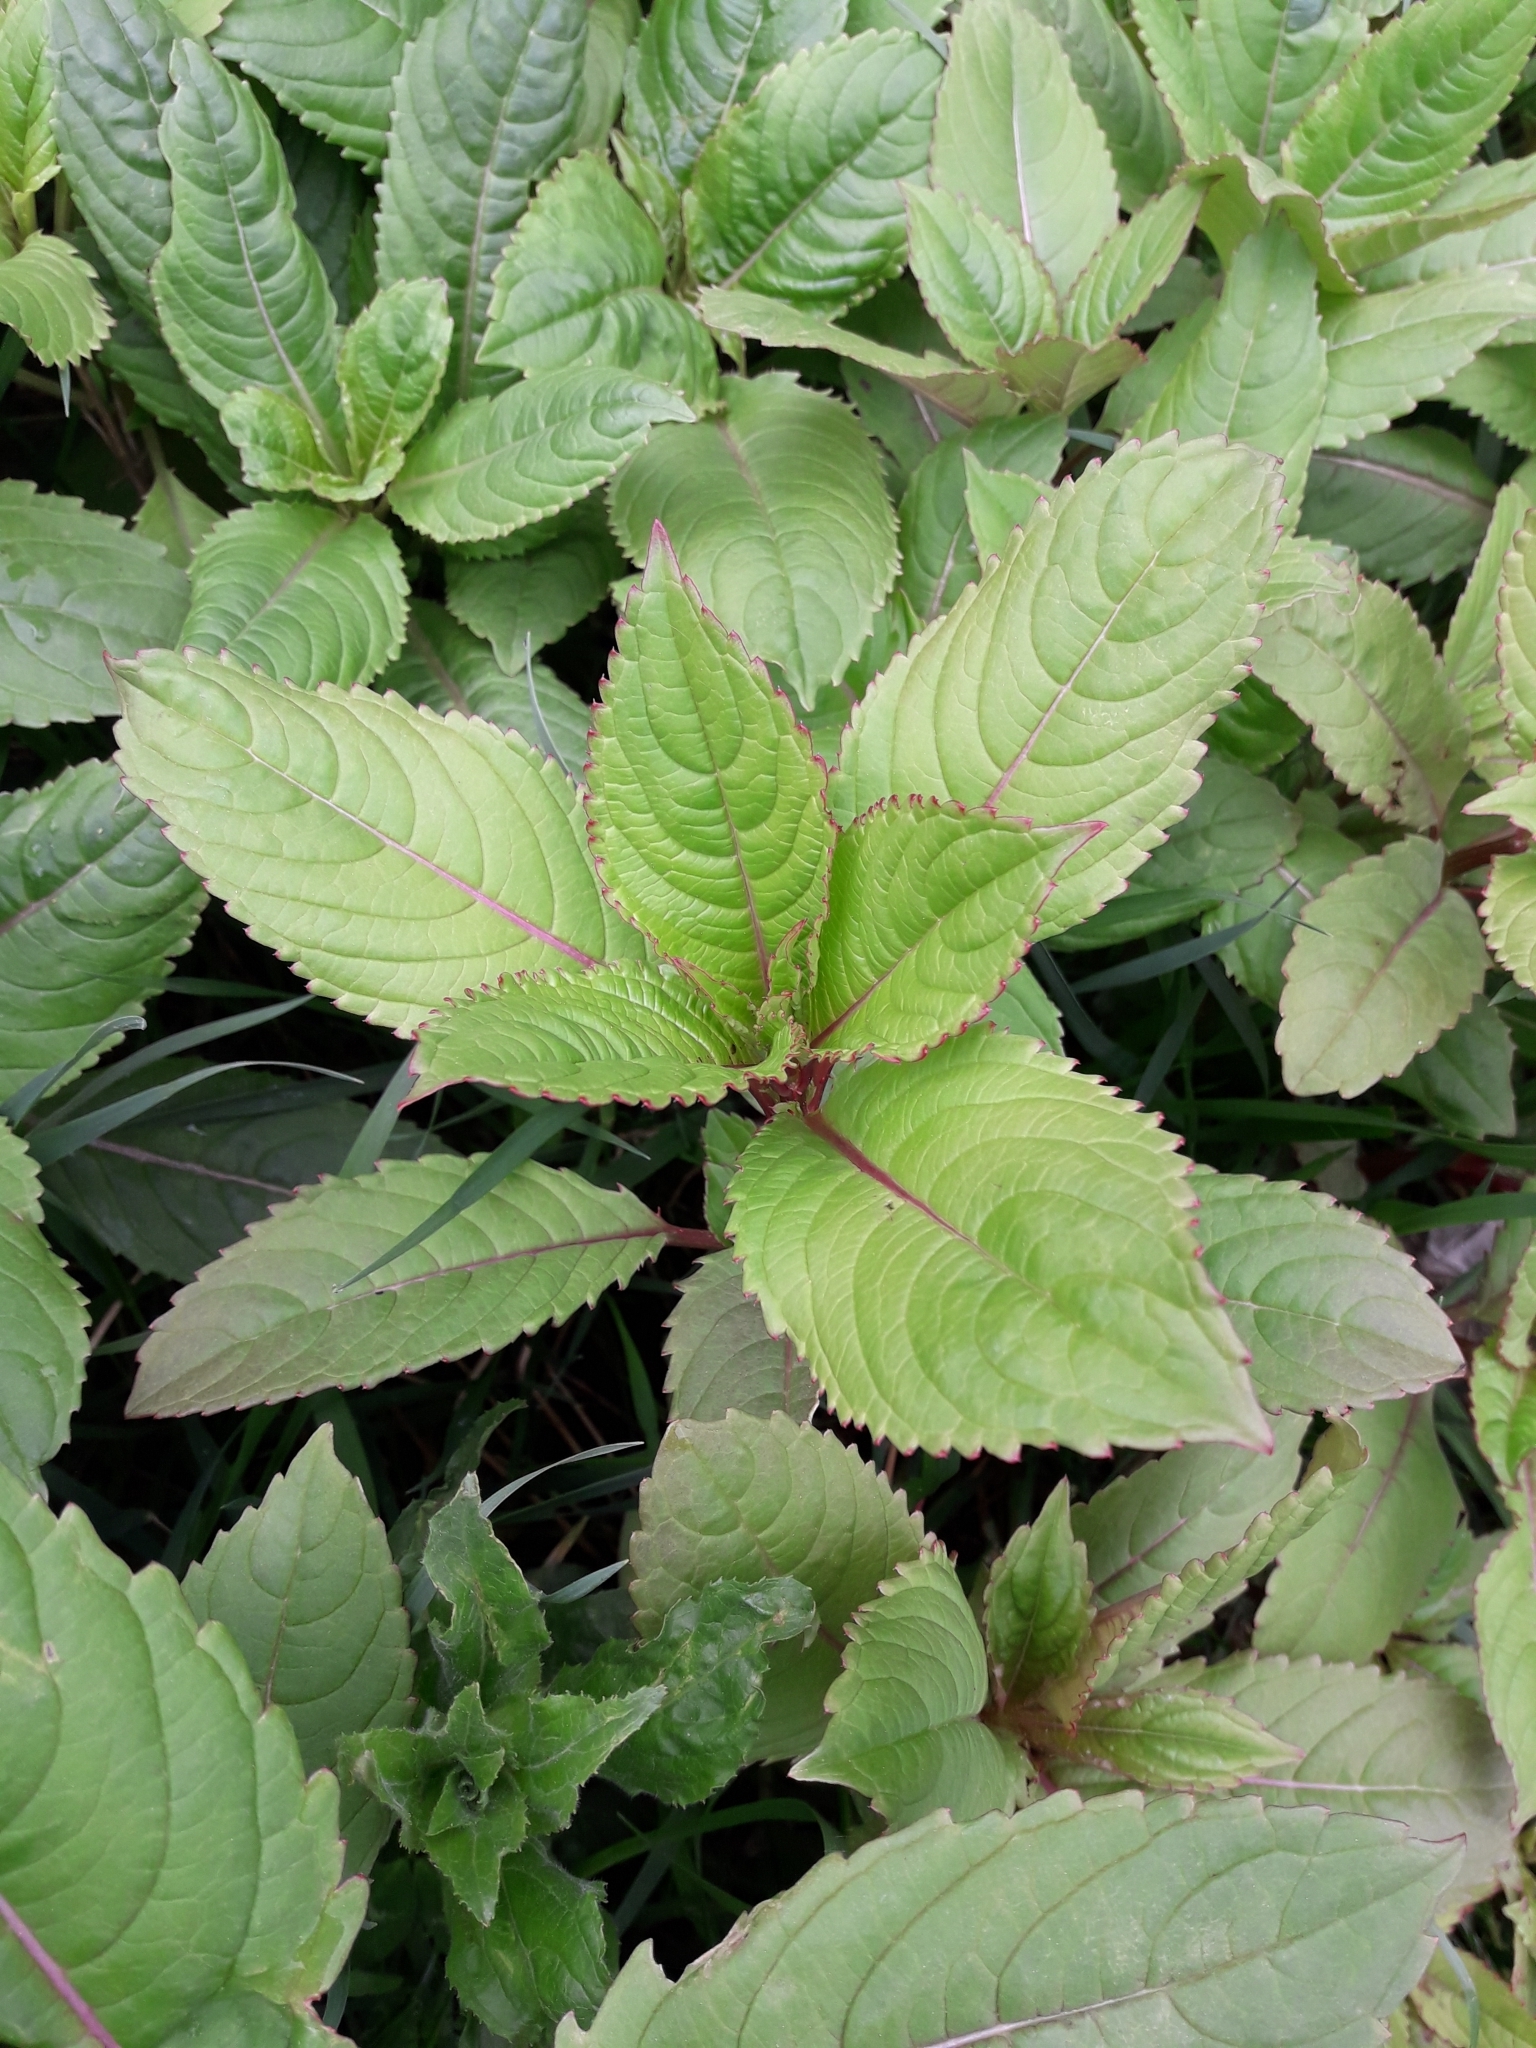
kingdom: Plantae
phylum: Tracheophyta
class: Magnoliopsida
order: Ericales
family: Balsaminaceae
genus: Impatiens
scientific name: Impatiens glandulifera
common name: Himalayan balsam
